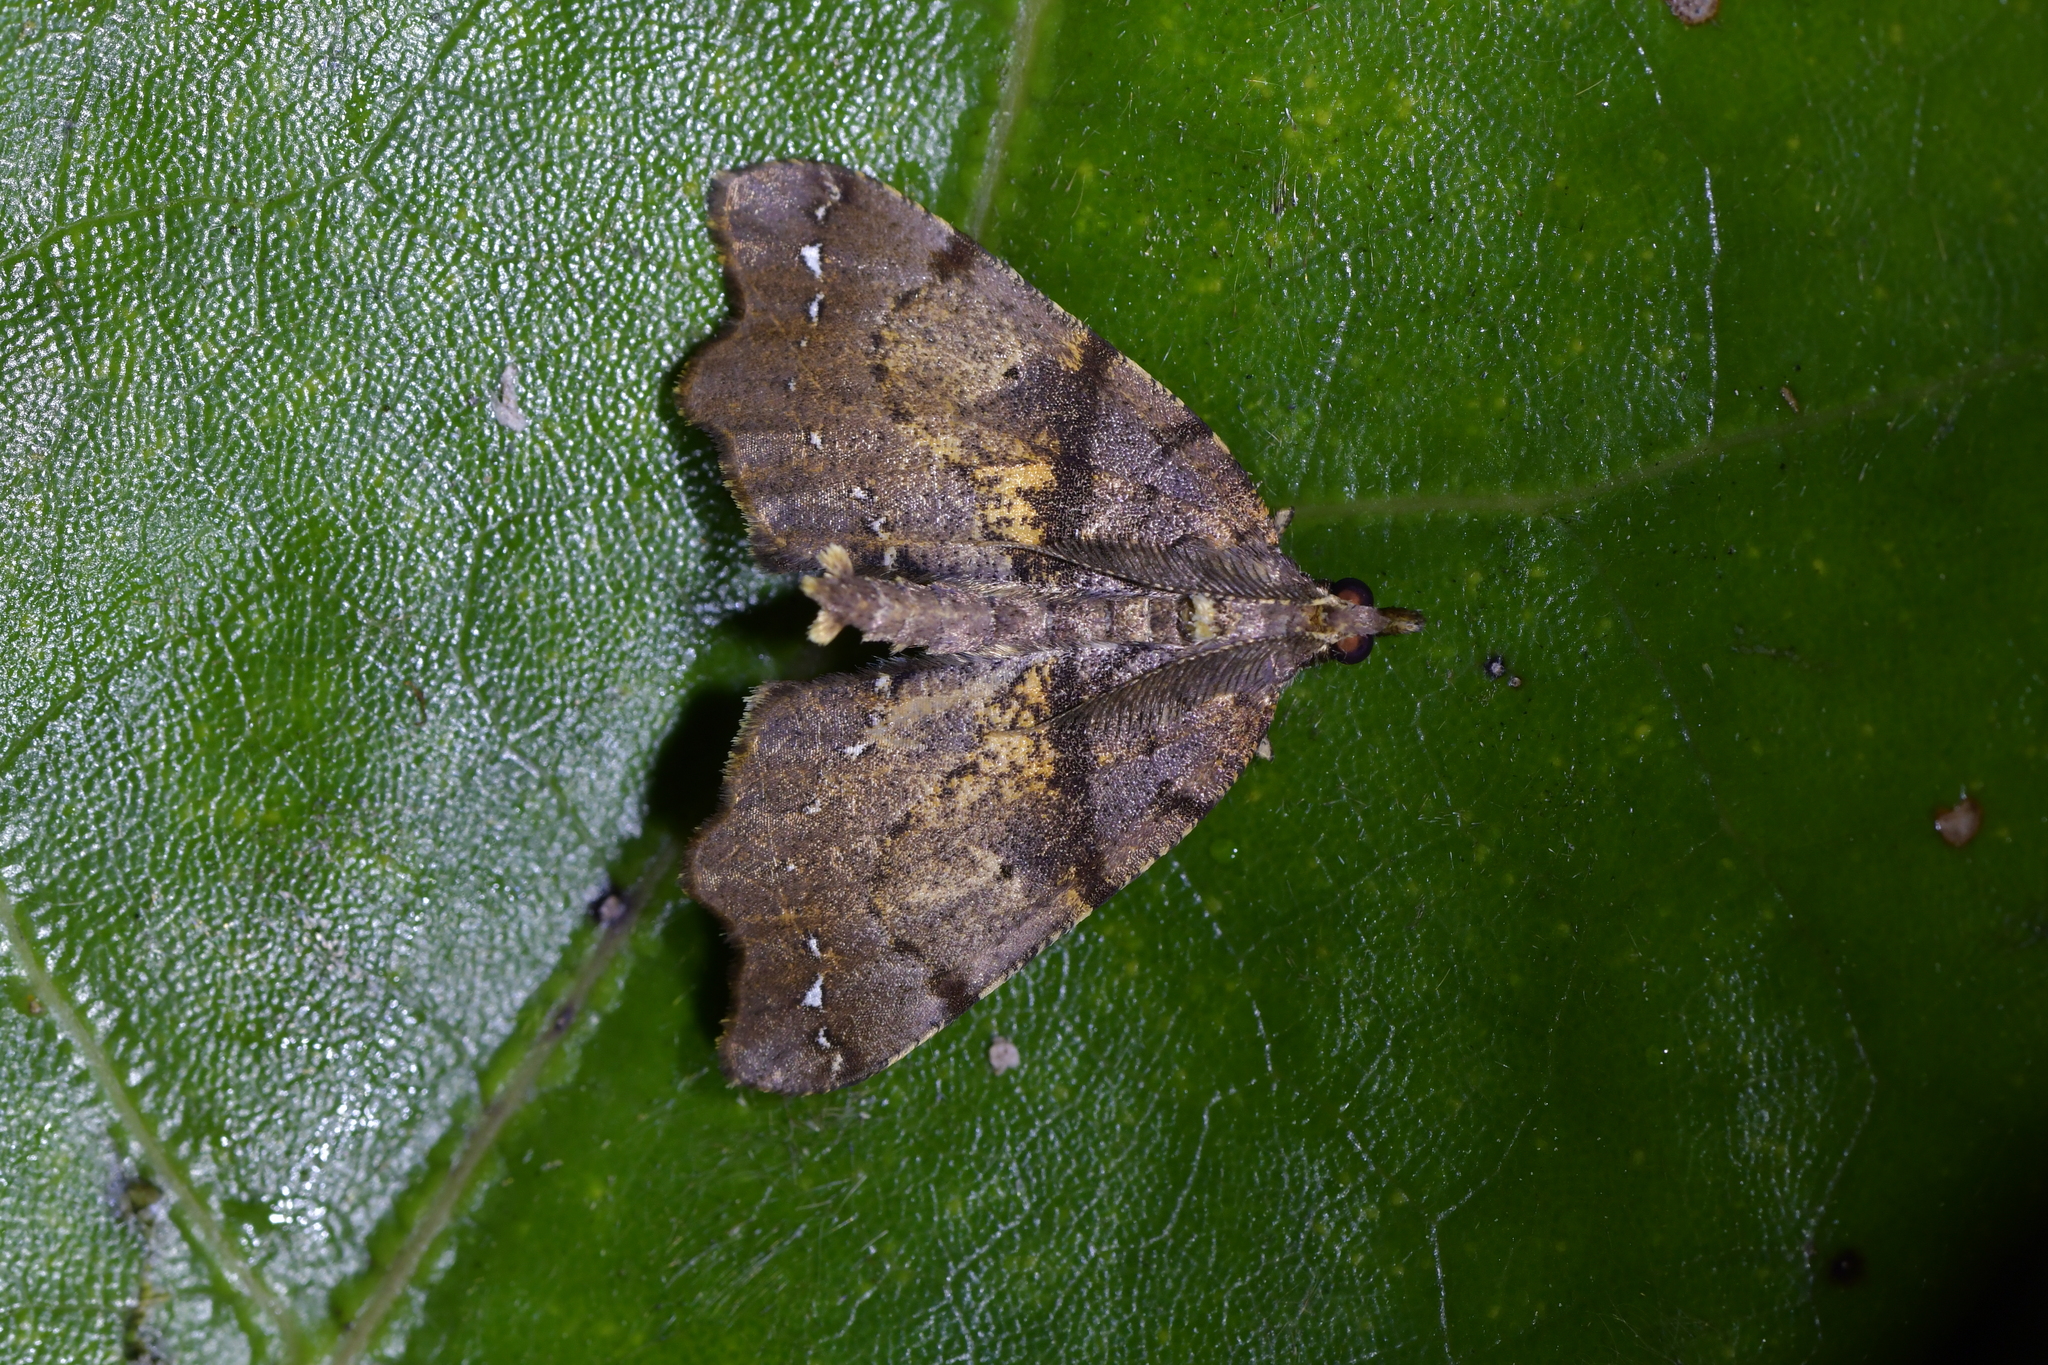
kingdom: Animalia
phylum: Arthropoda
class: Insecta
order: Lepidoptera
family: Geometridae
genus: Chalastra
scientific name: Chalastra pellurgata
